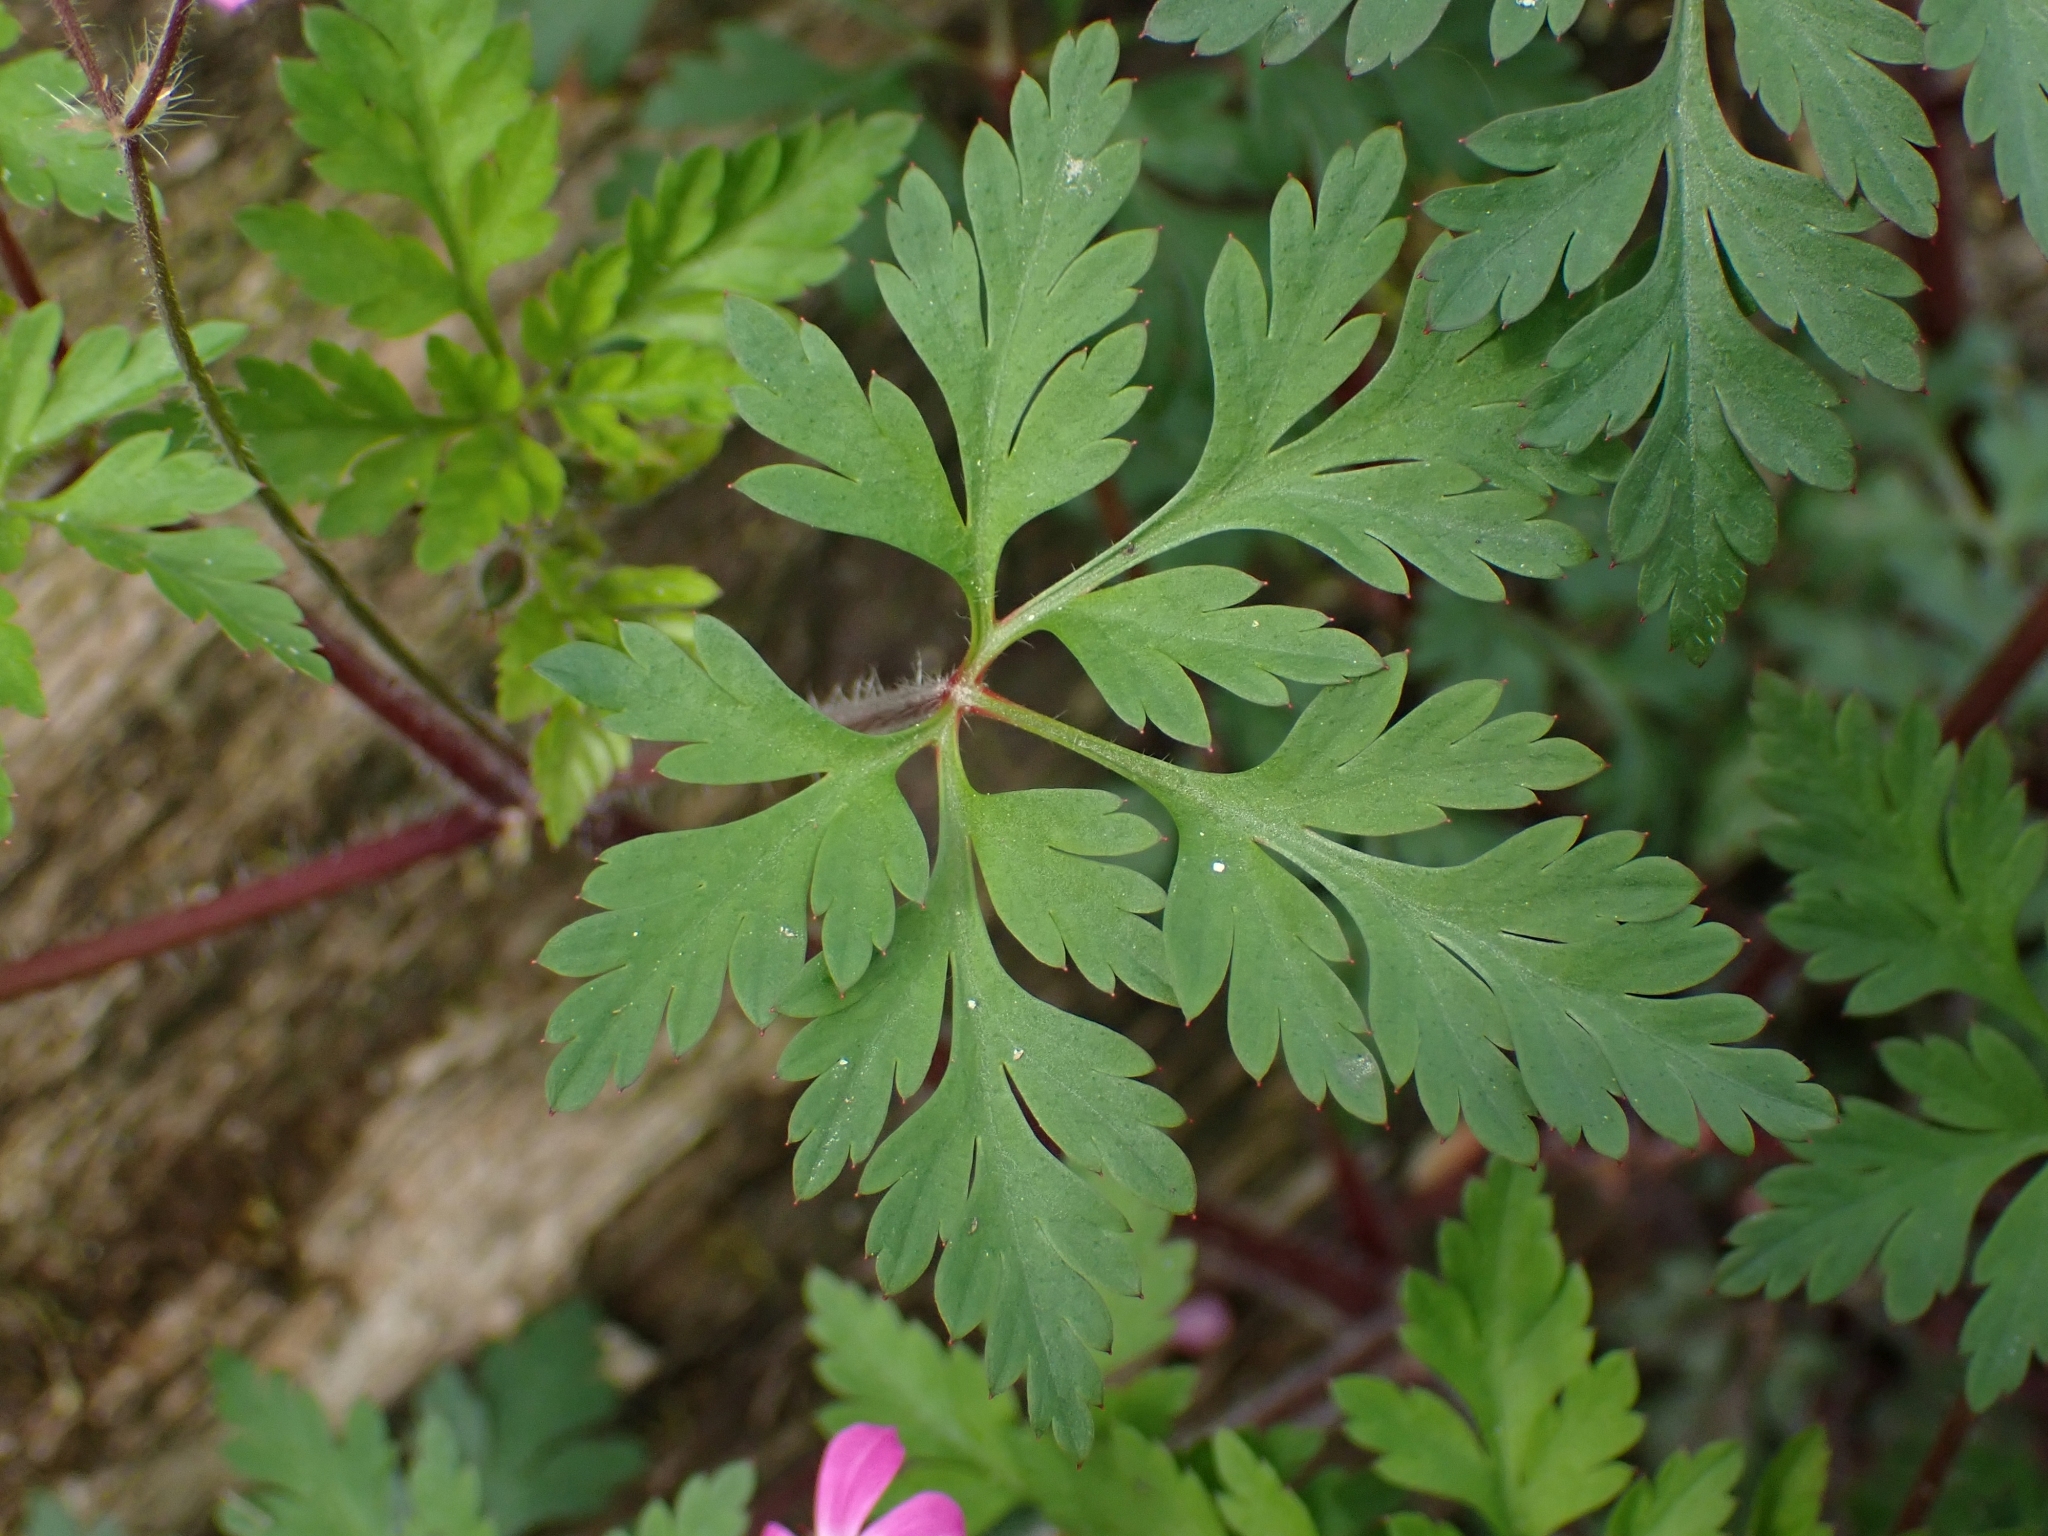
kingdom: Plantae
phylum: Tracheophyta
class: Magnoliopsida
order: Geraniales
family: Geraniaceae
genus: Geranium
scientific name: Geranium robertianum
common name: Herb-robert
